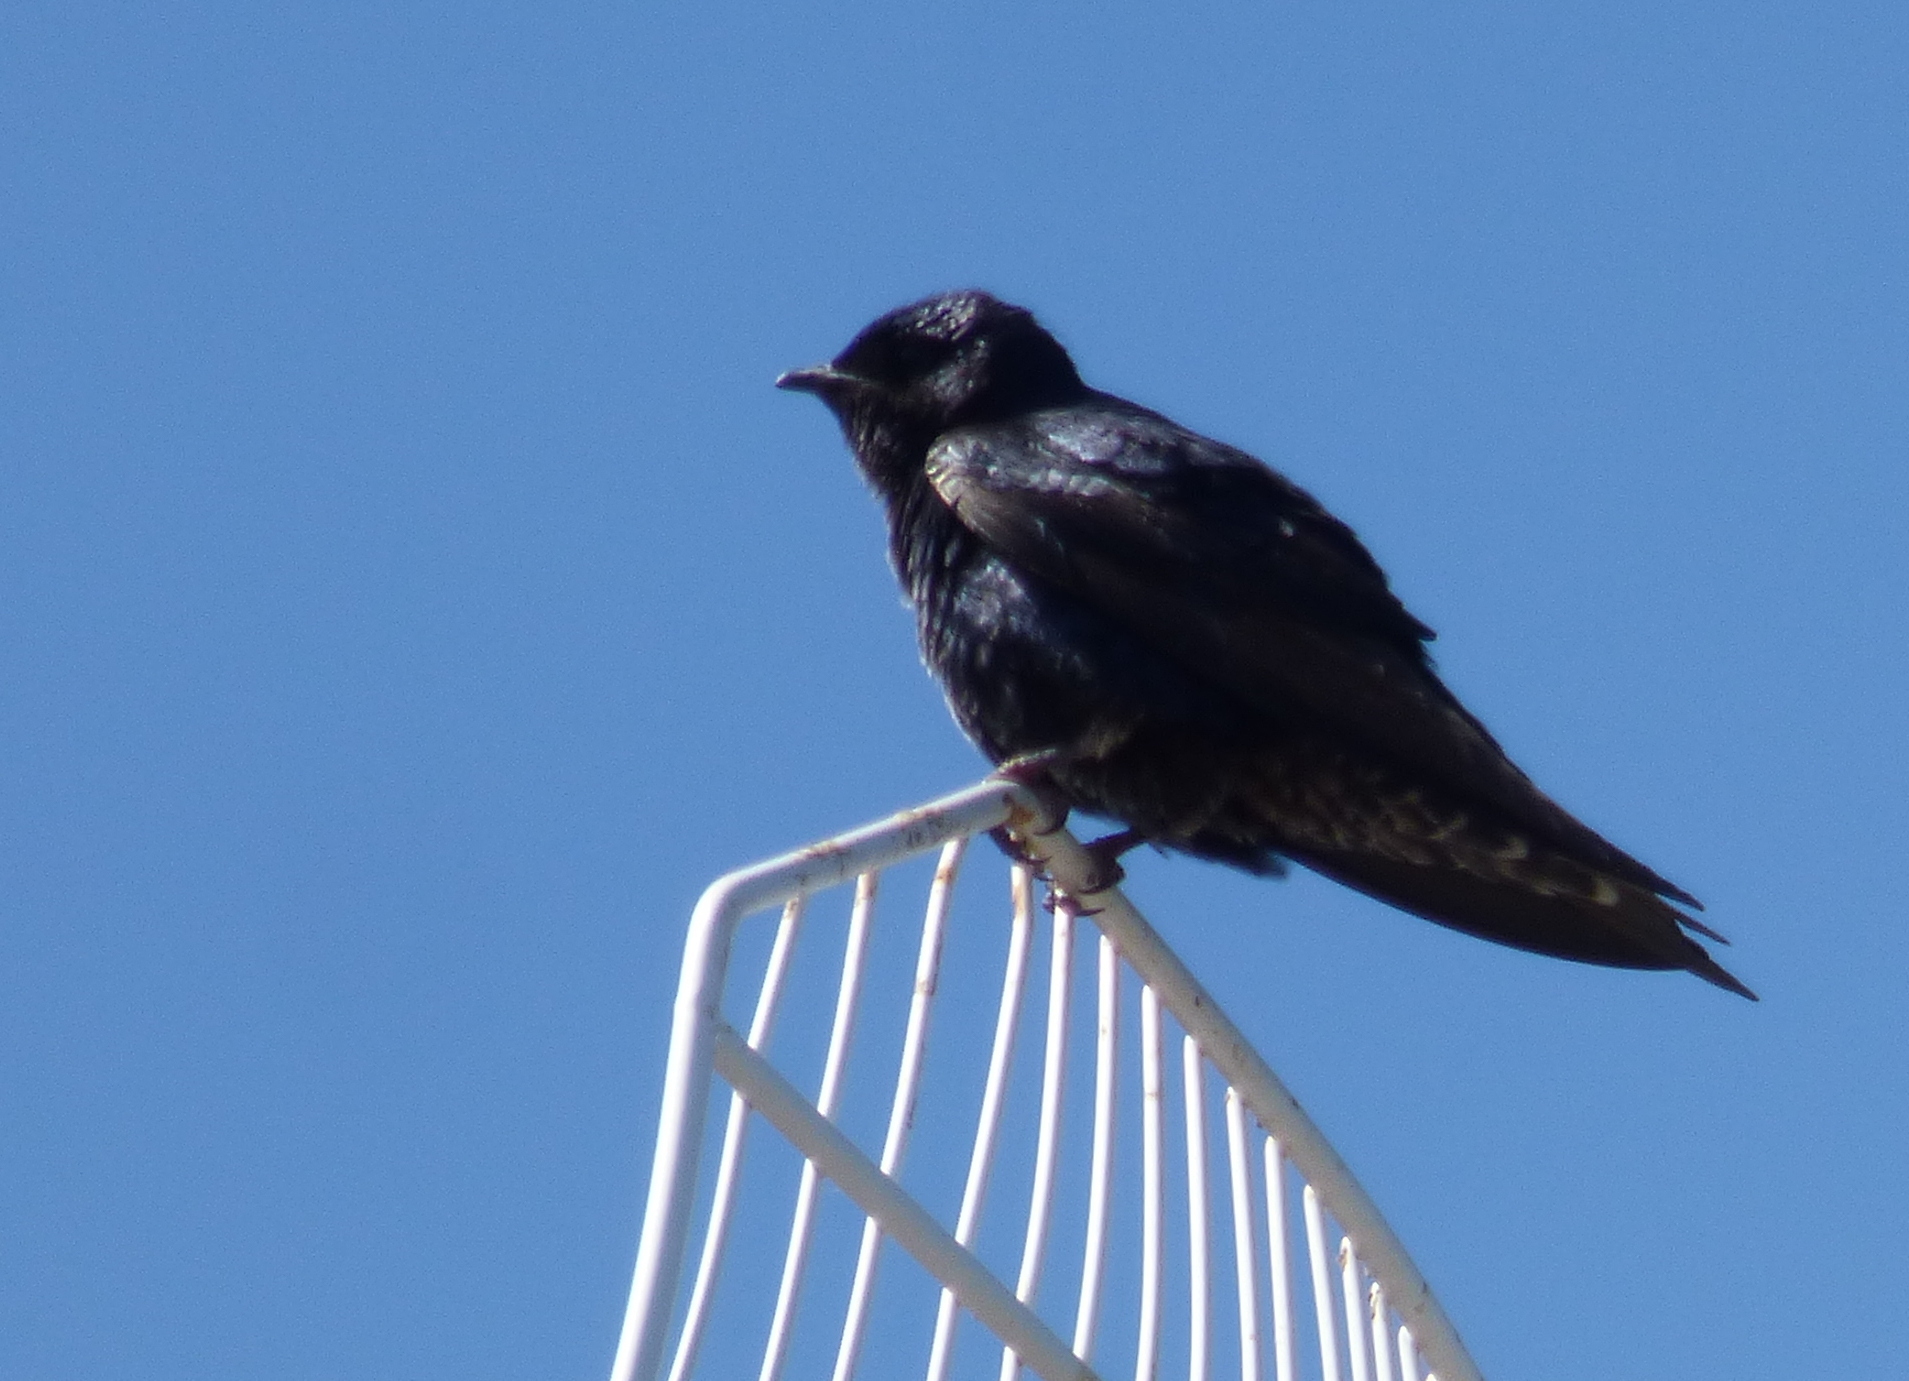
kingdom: Animalia
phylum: Chordata
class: Aves
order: Passeriformes
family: Hirundinidae
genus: Progne
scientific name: Progne elegans
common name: Southern martin
